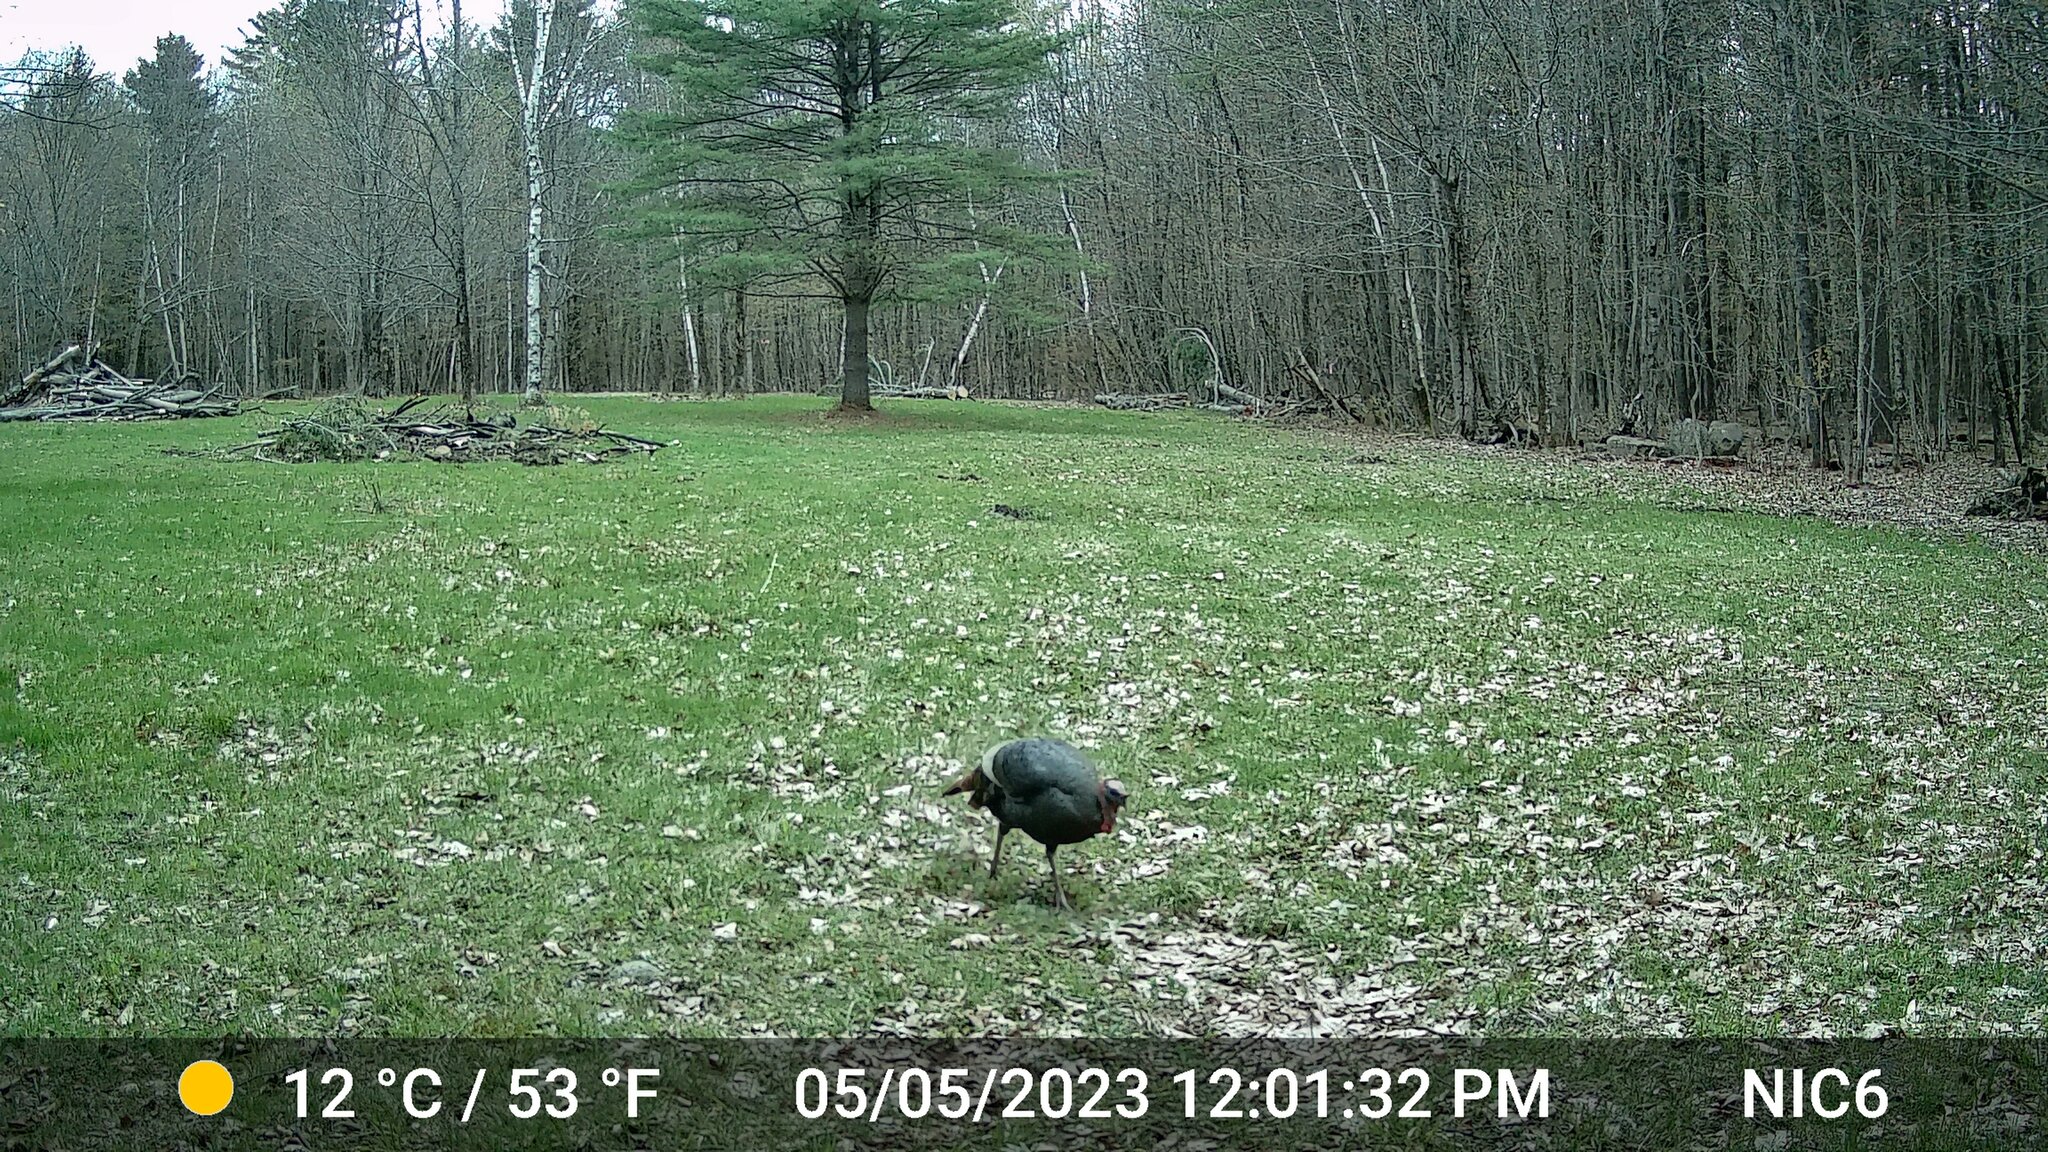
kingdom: Animalia
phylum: Chordata
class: Aves
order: Galliformes
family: Phasianidae
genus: Meleagris
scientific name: Meleagris gallopavo
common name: Wild turkey
